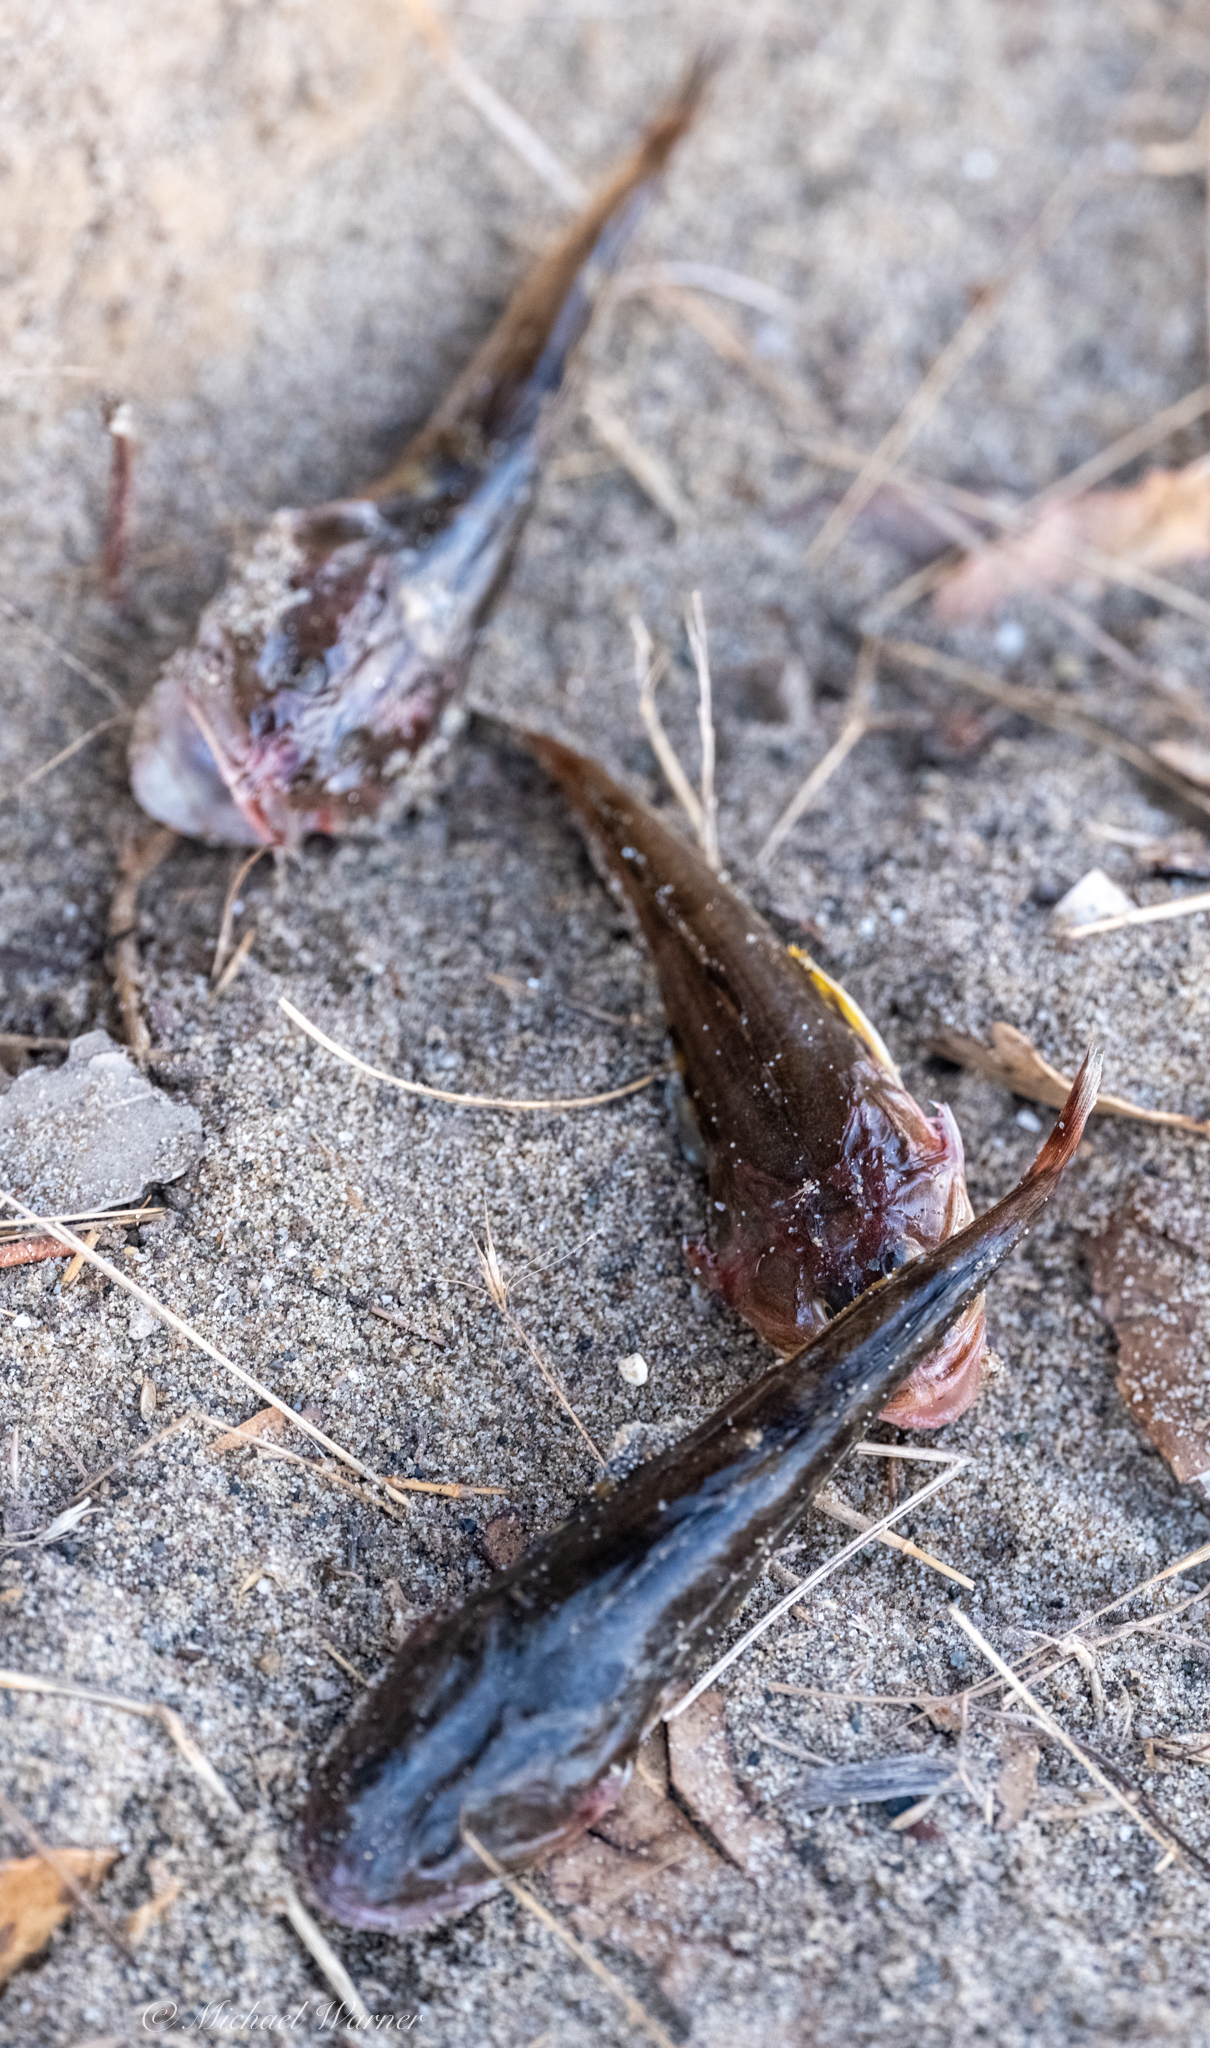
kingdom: Animalia
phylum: Chordata
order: Scorpaeniformes
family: Cottidae
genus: Leptocottus
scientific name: Leptocottus armatus
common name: Pacific staghorn sculpin
